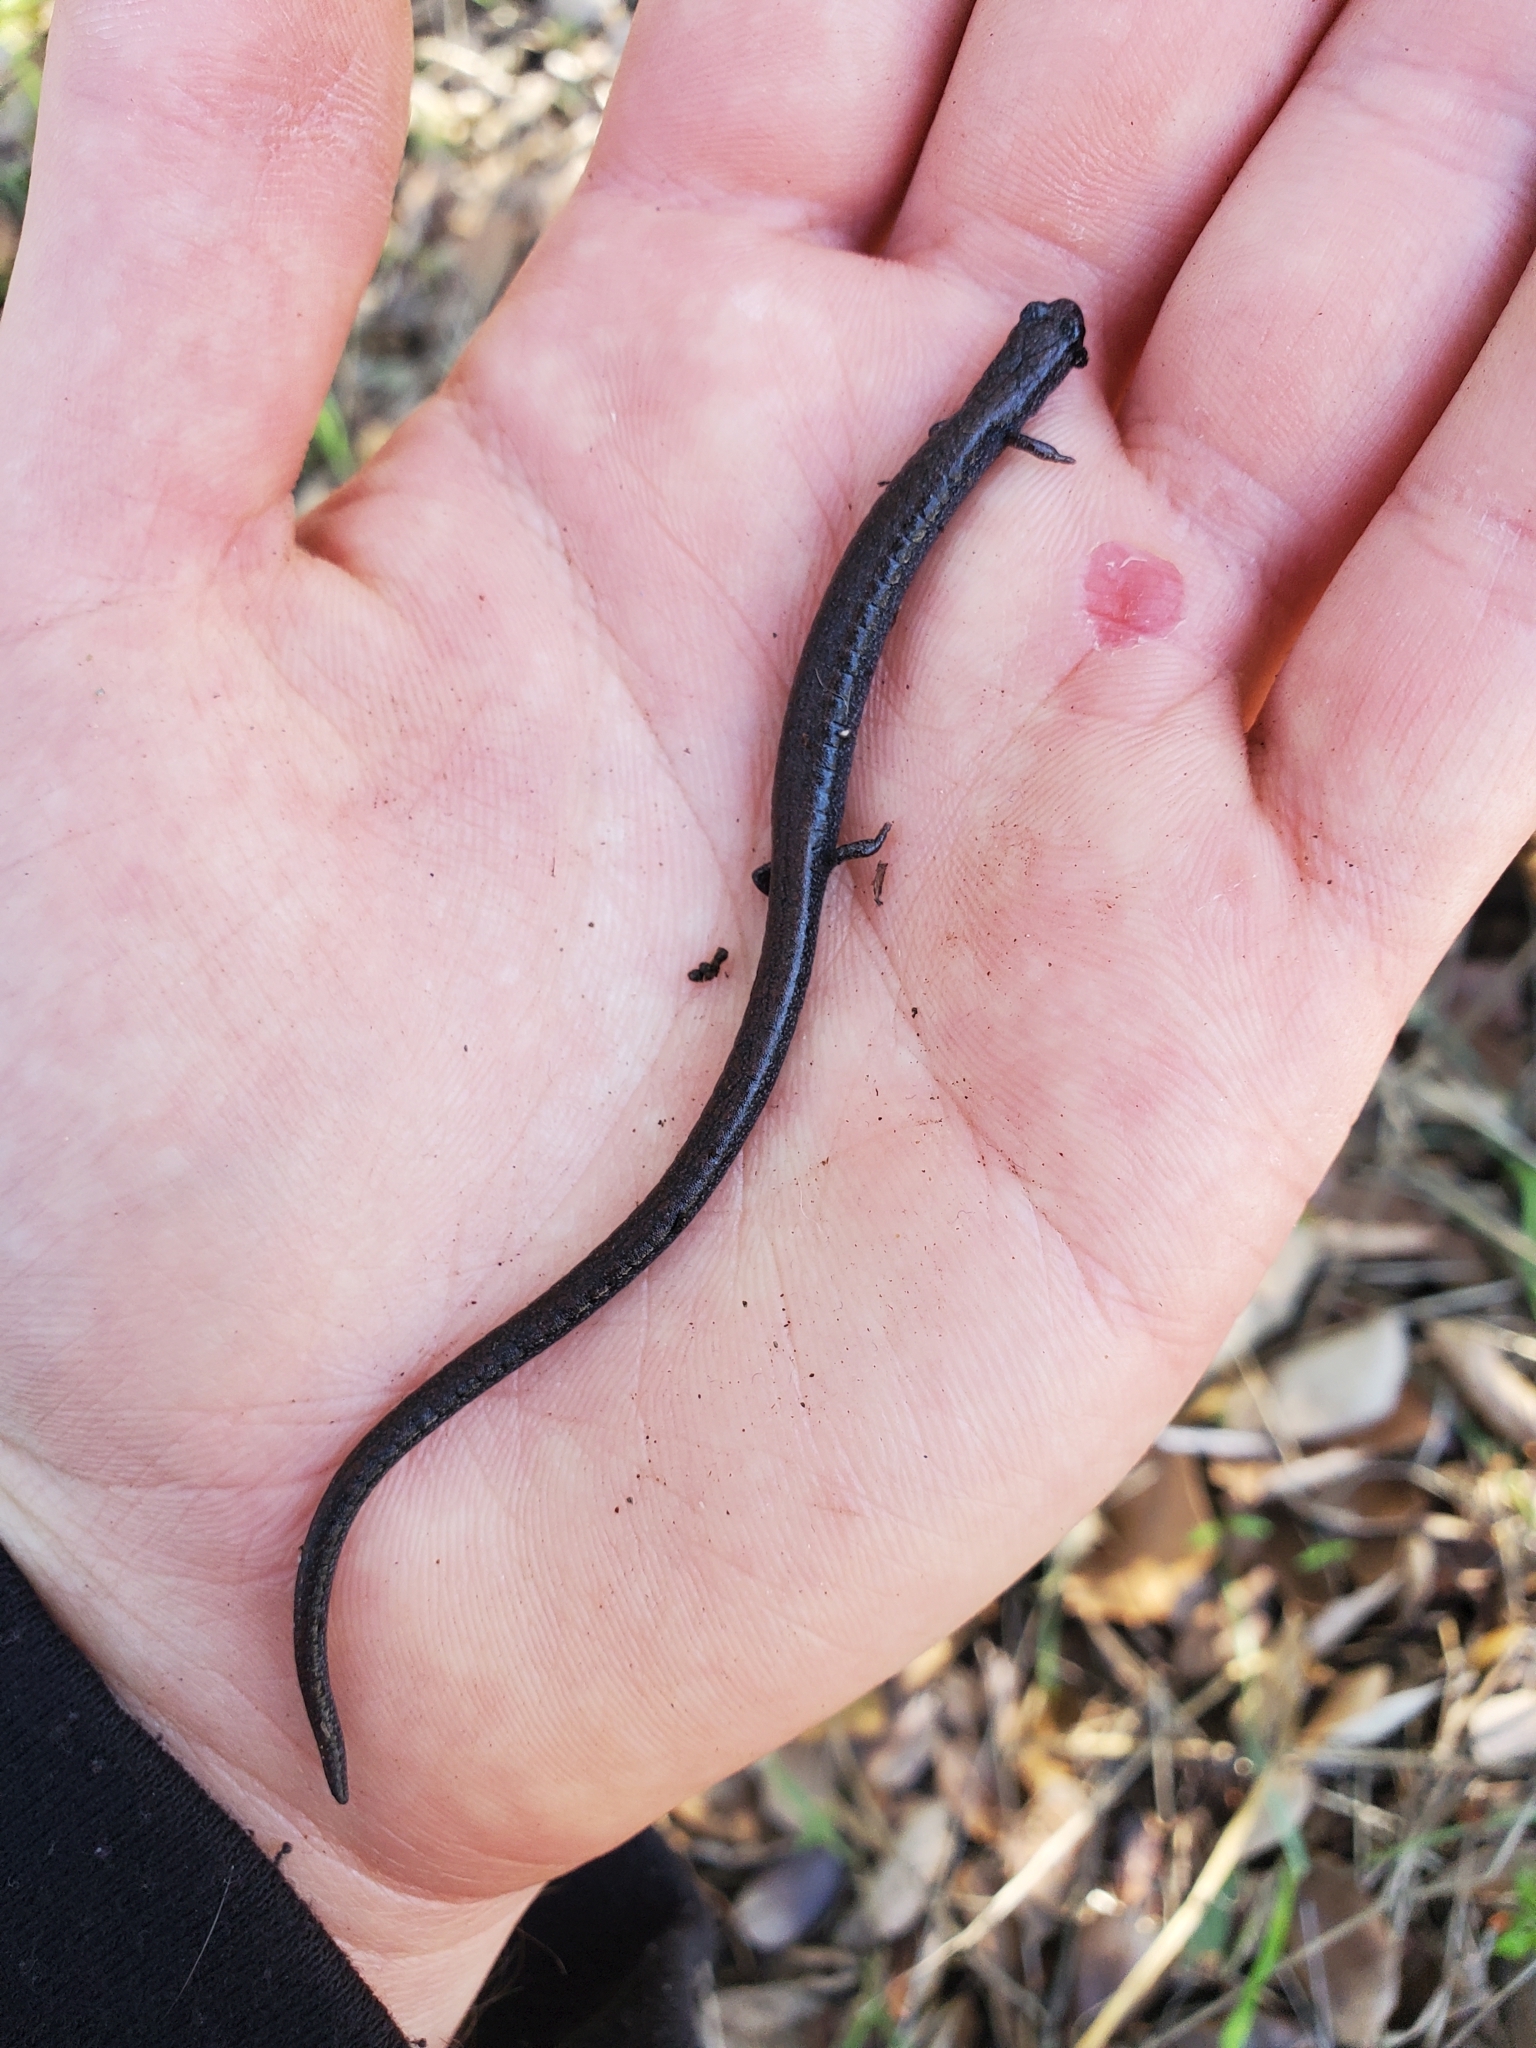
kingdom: Animalia
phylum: Chordata
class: Amphibia
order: Caudata
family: Plethodontidae
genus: Batrachoseps
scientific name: Batrachoseps nigriventris
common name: Black-bellied slender salamander
